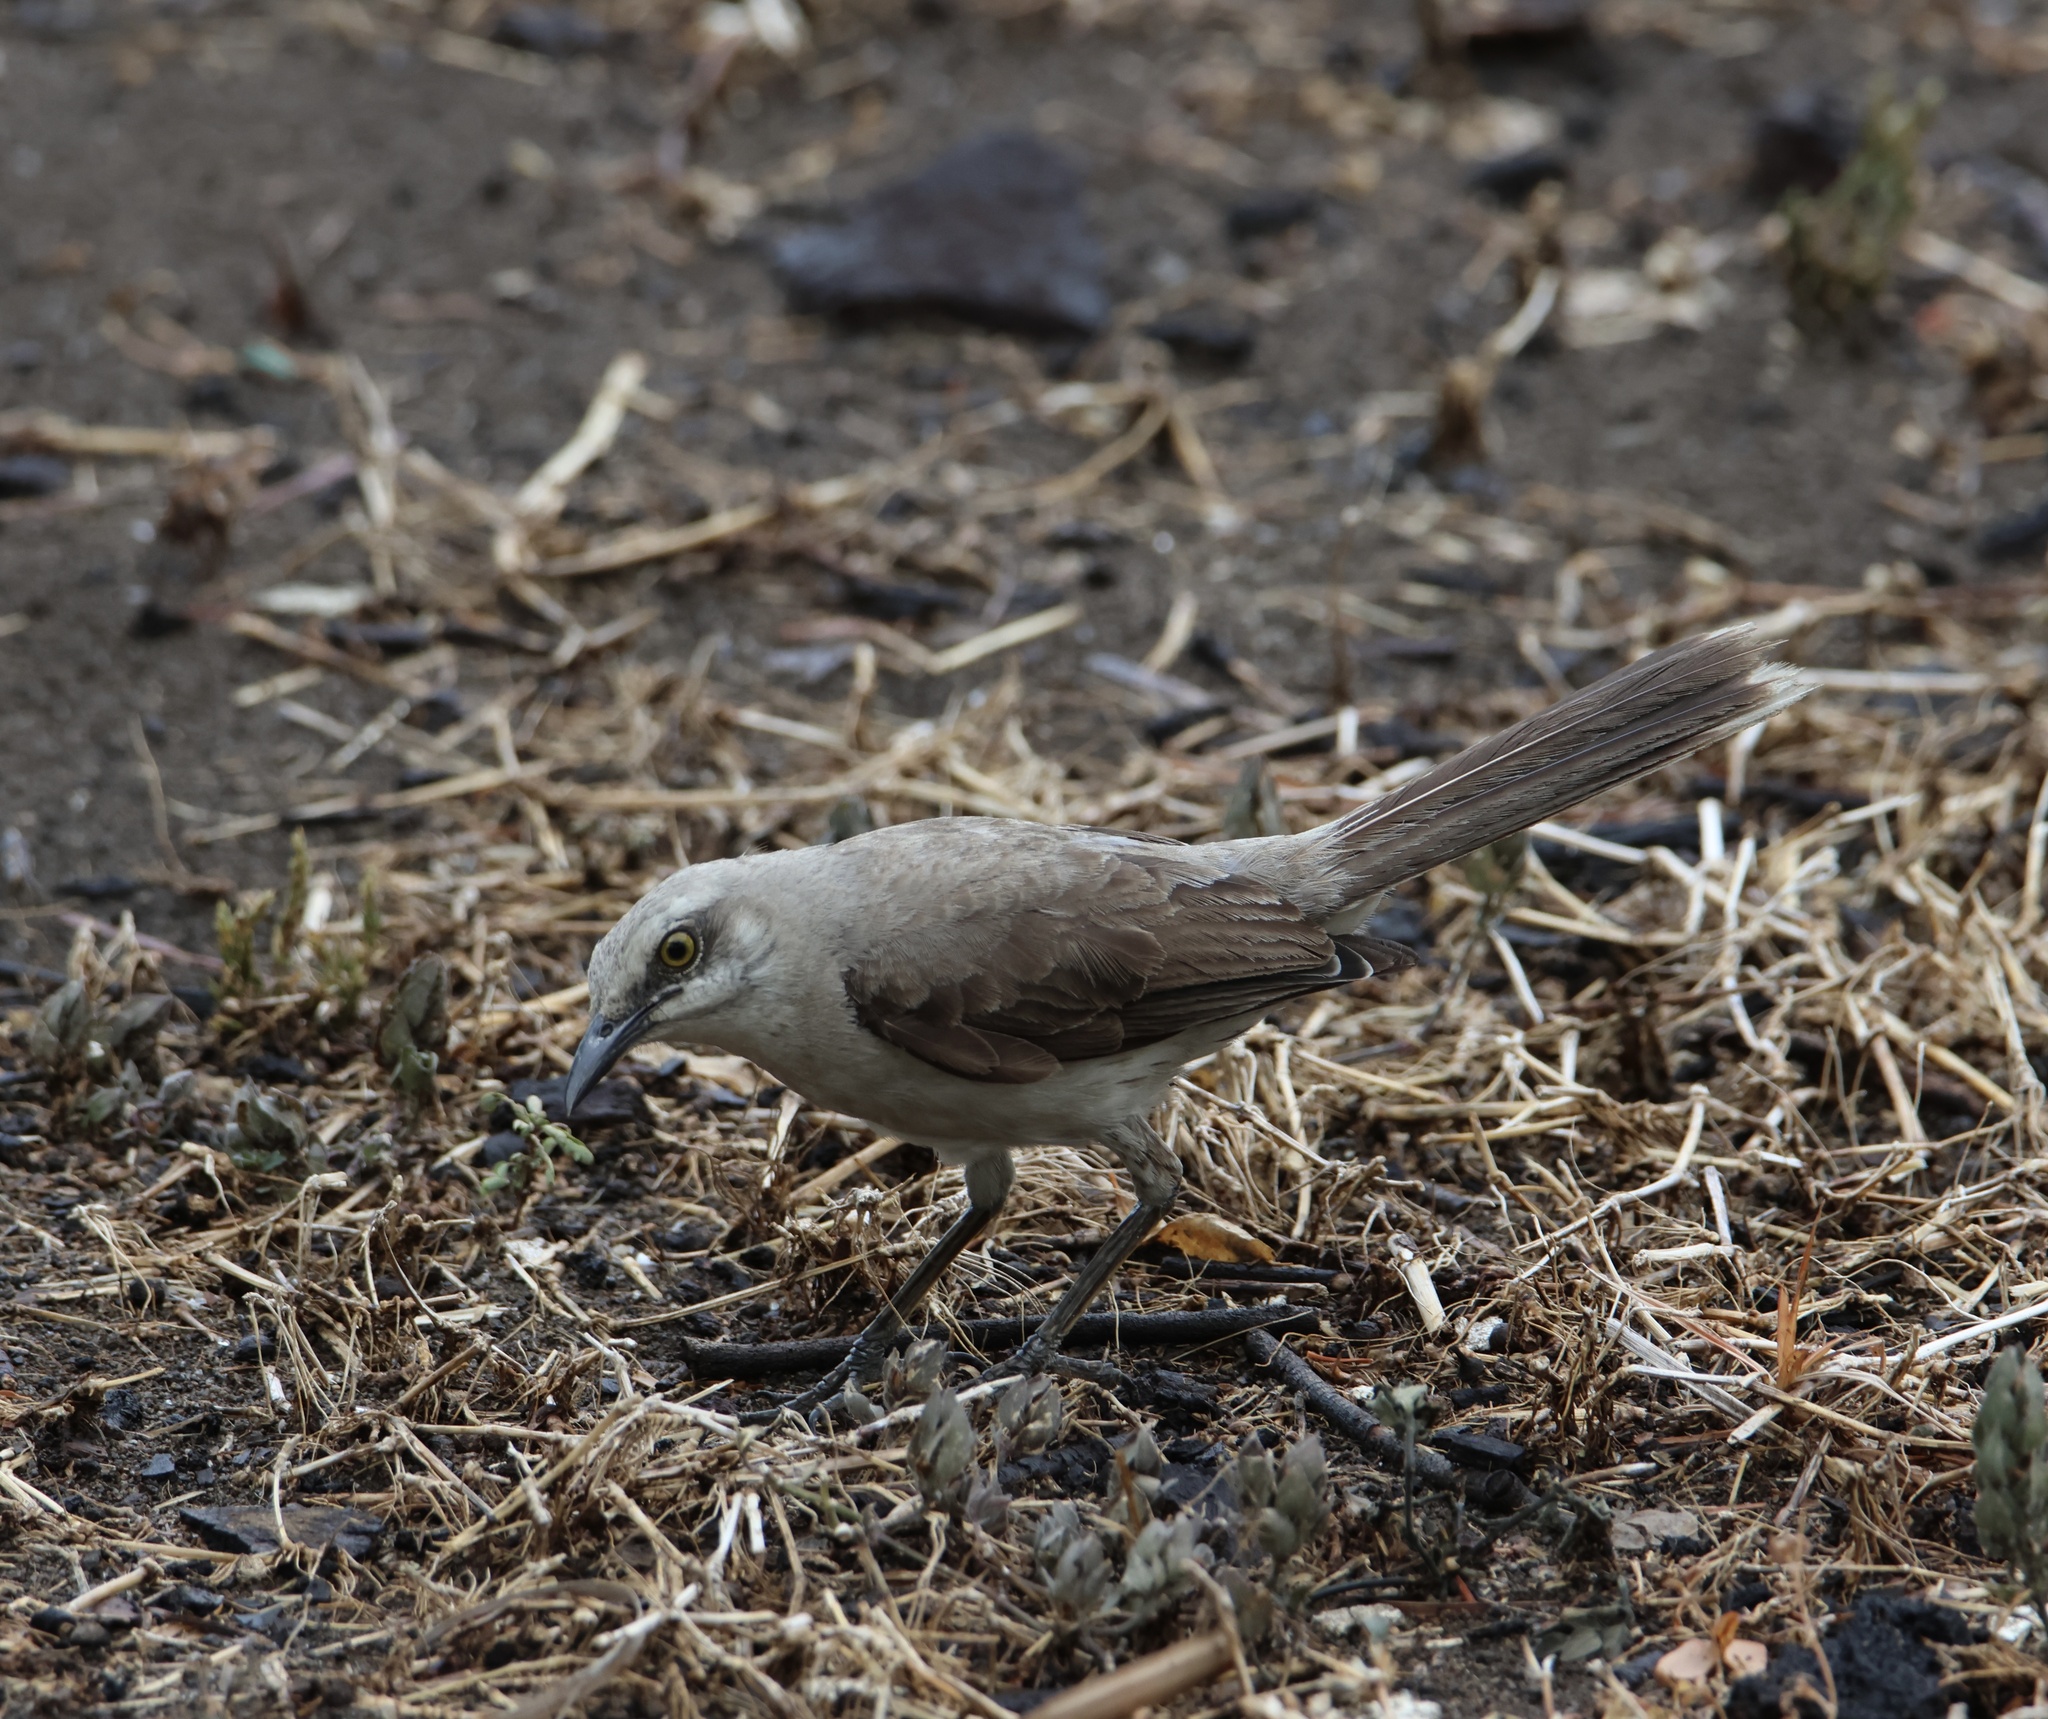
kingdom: Animalia
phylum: Chordata
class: Aves
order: Passeriformes
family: Mimidae
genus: Mimus
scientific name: Mimus gilvus
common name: Tropical mockingbird
